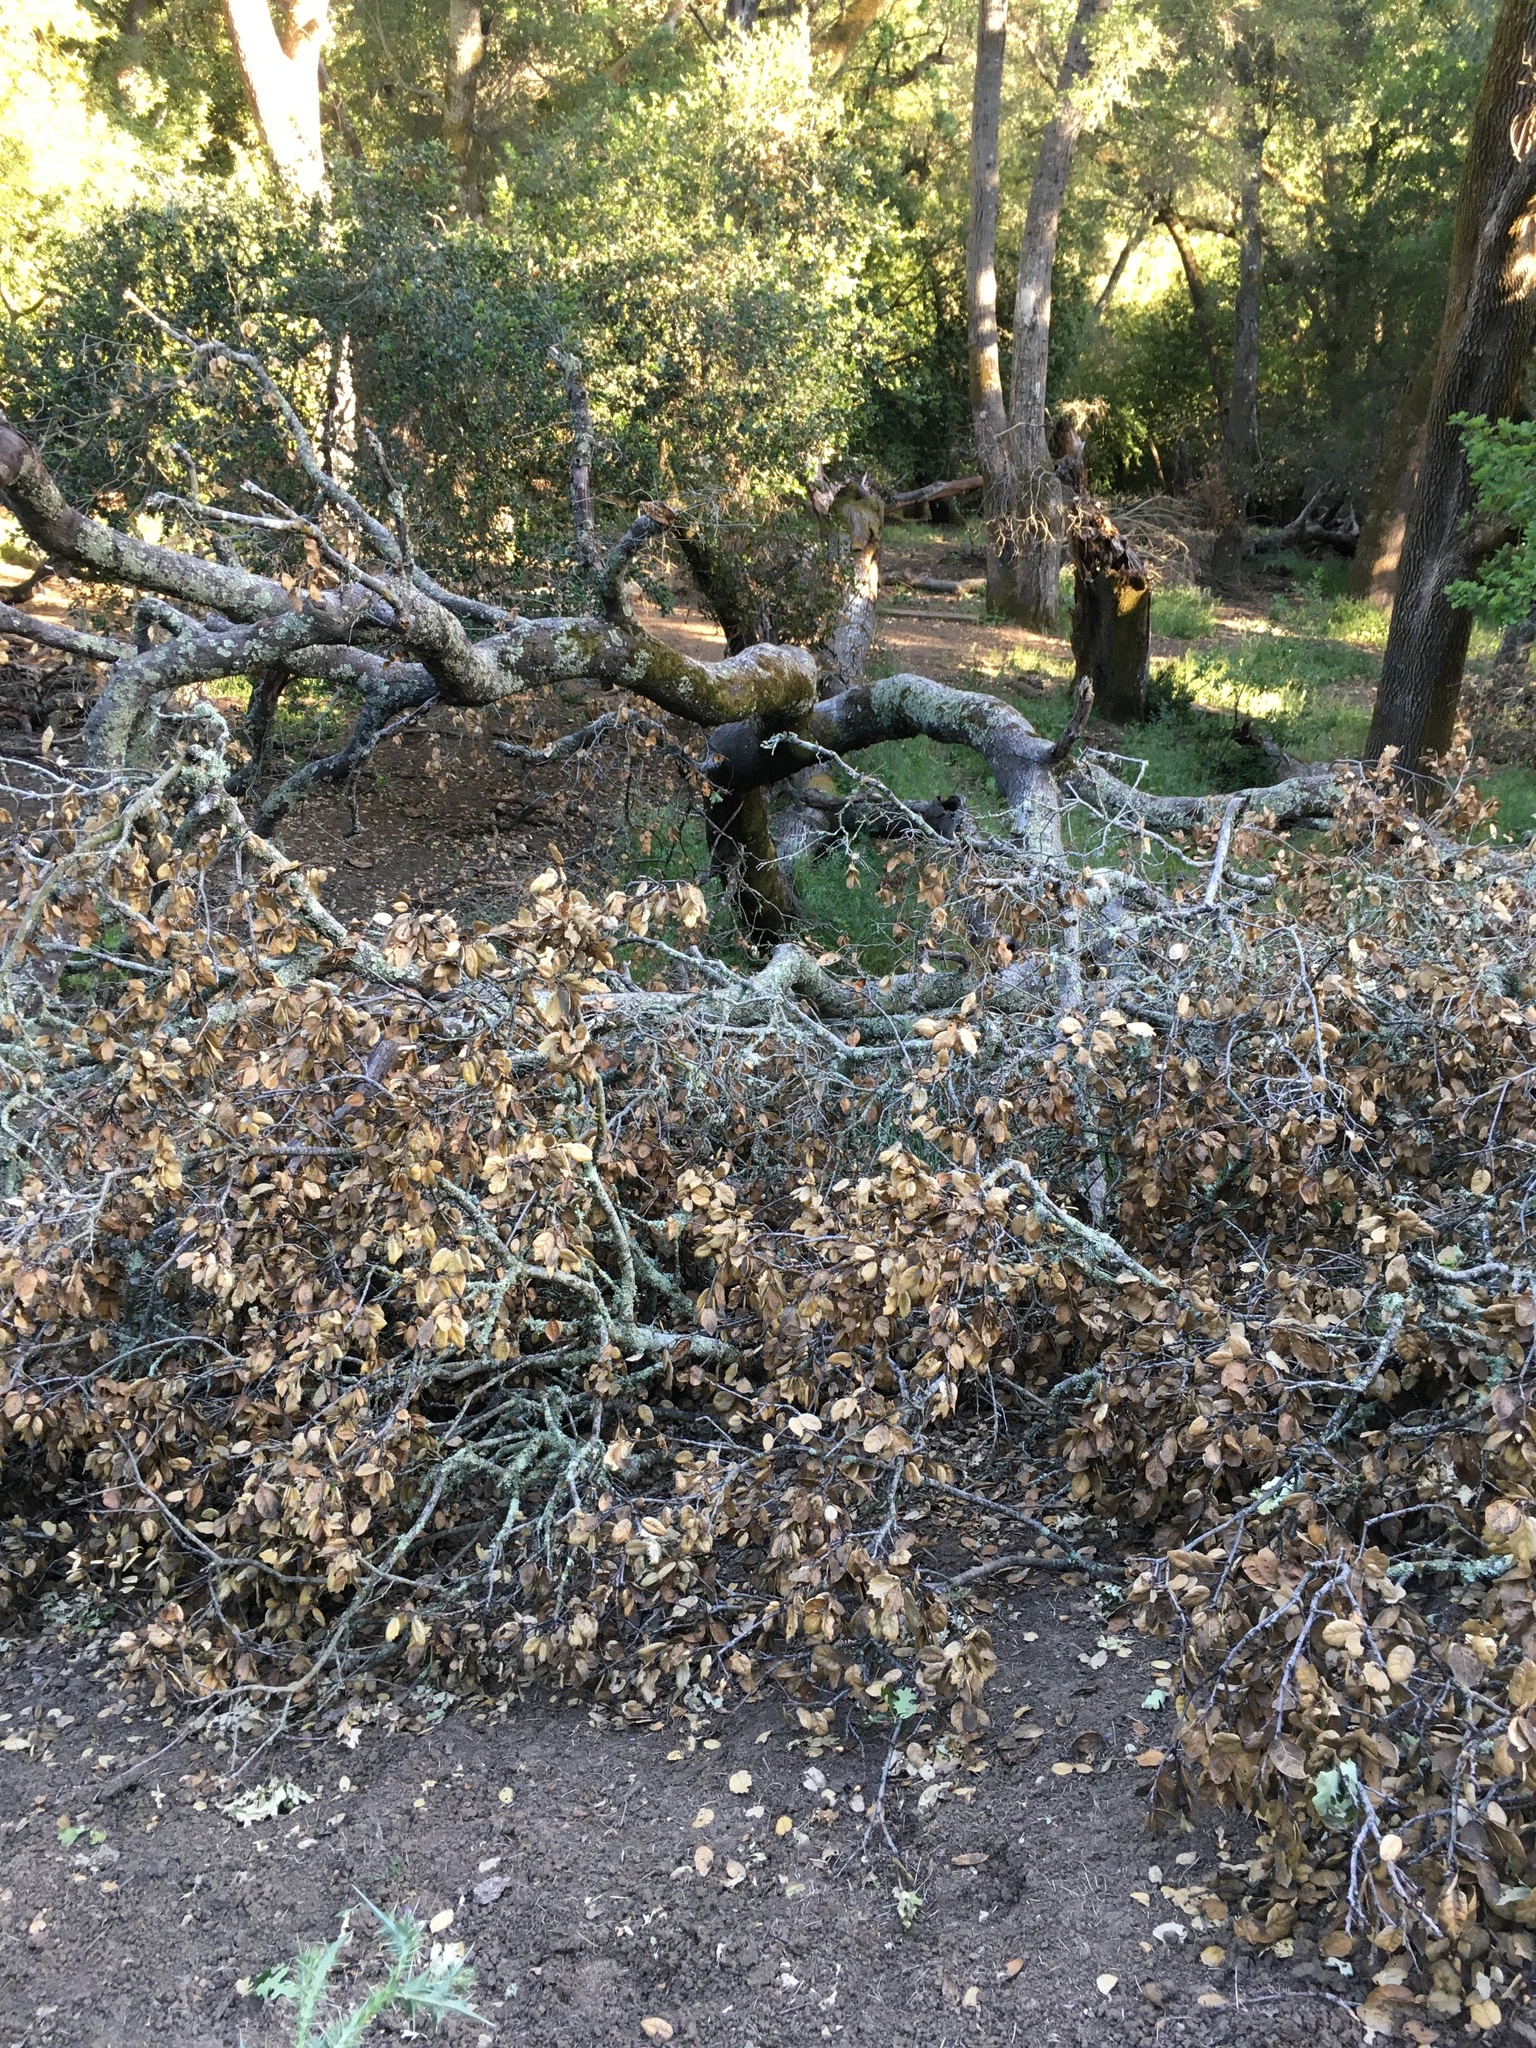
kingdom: Plantae
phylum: Tracheophyta
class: Magnoliopsida
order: Fagales
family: Fagaceae
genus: Quercus
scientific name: Quercus agrifolia
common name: California live oak
